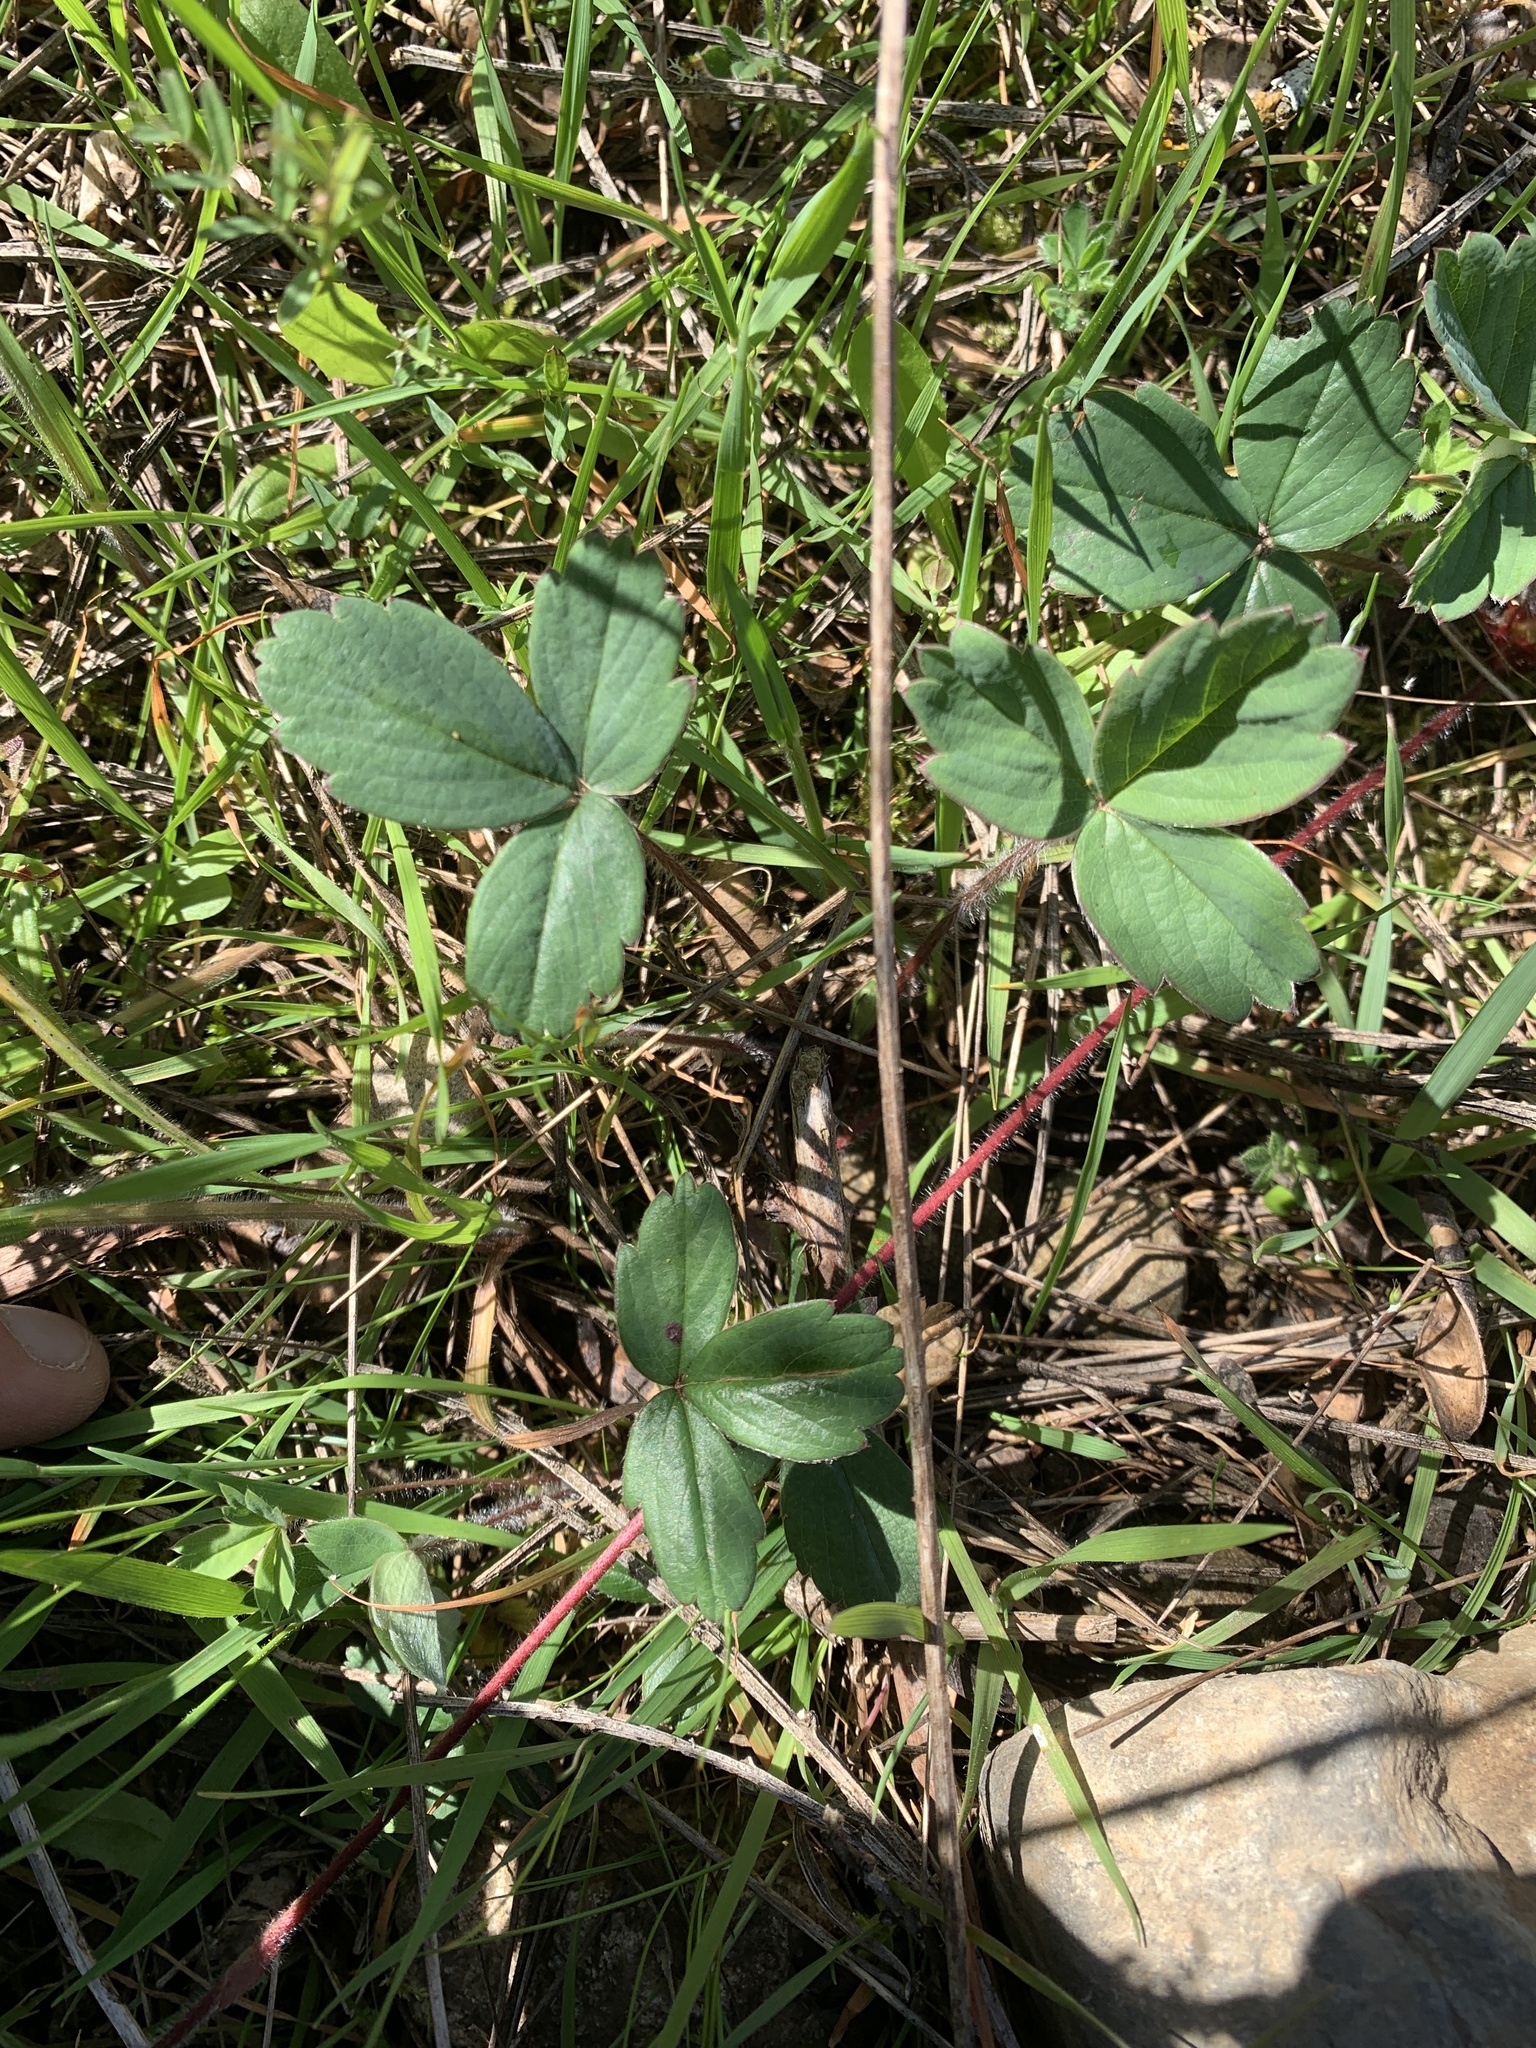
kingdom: Plantae
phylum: Tracheophyta
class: Magnoliopsida
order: Rosales
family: Rosaceae
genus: Fragaria
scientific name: Fragaria virginiana
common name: Thickleaved wild strawberry
